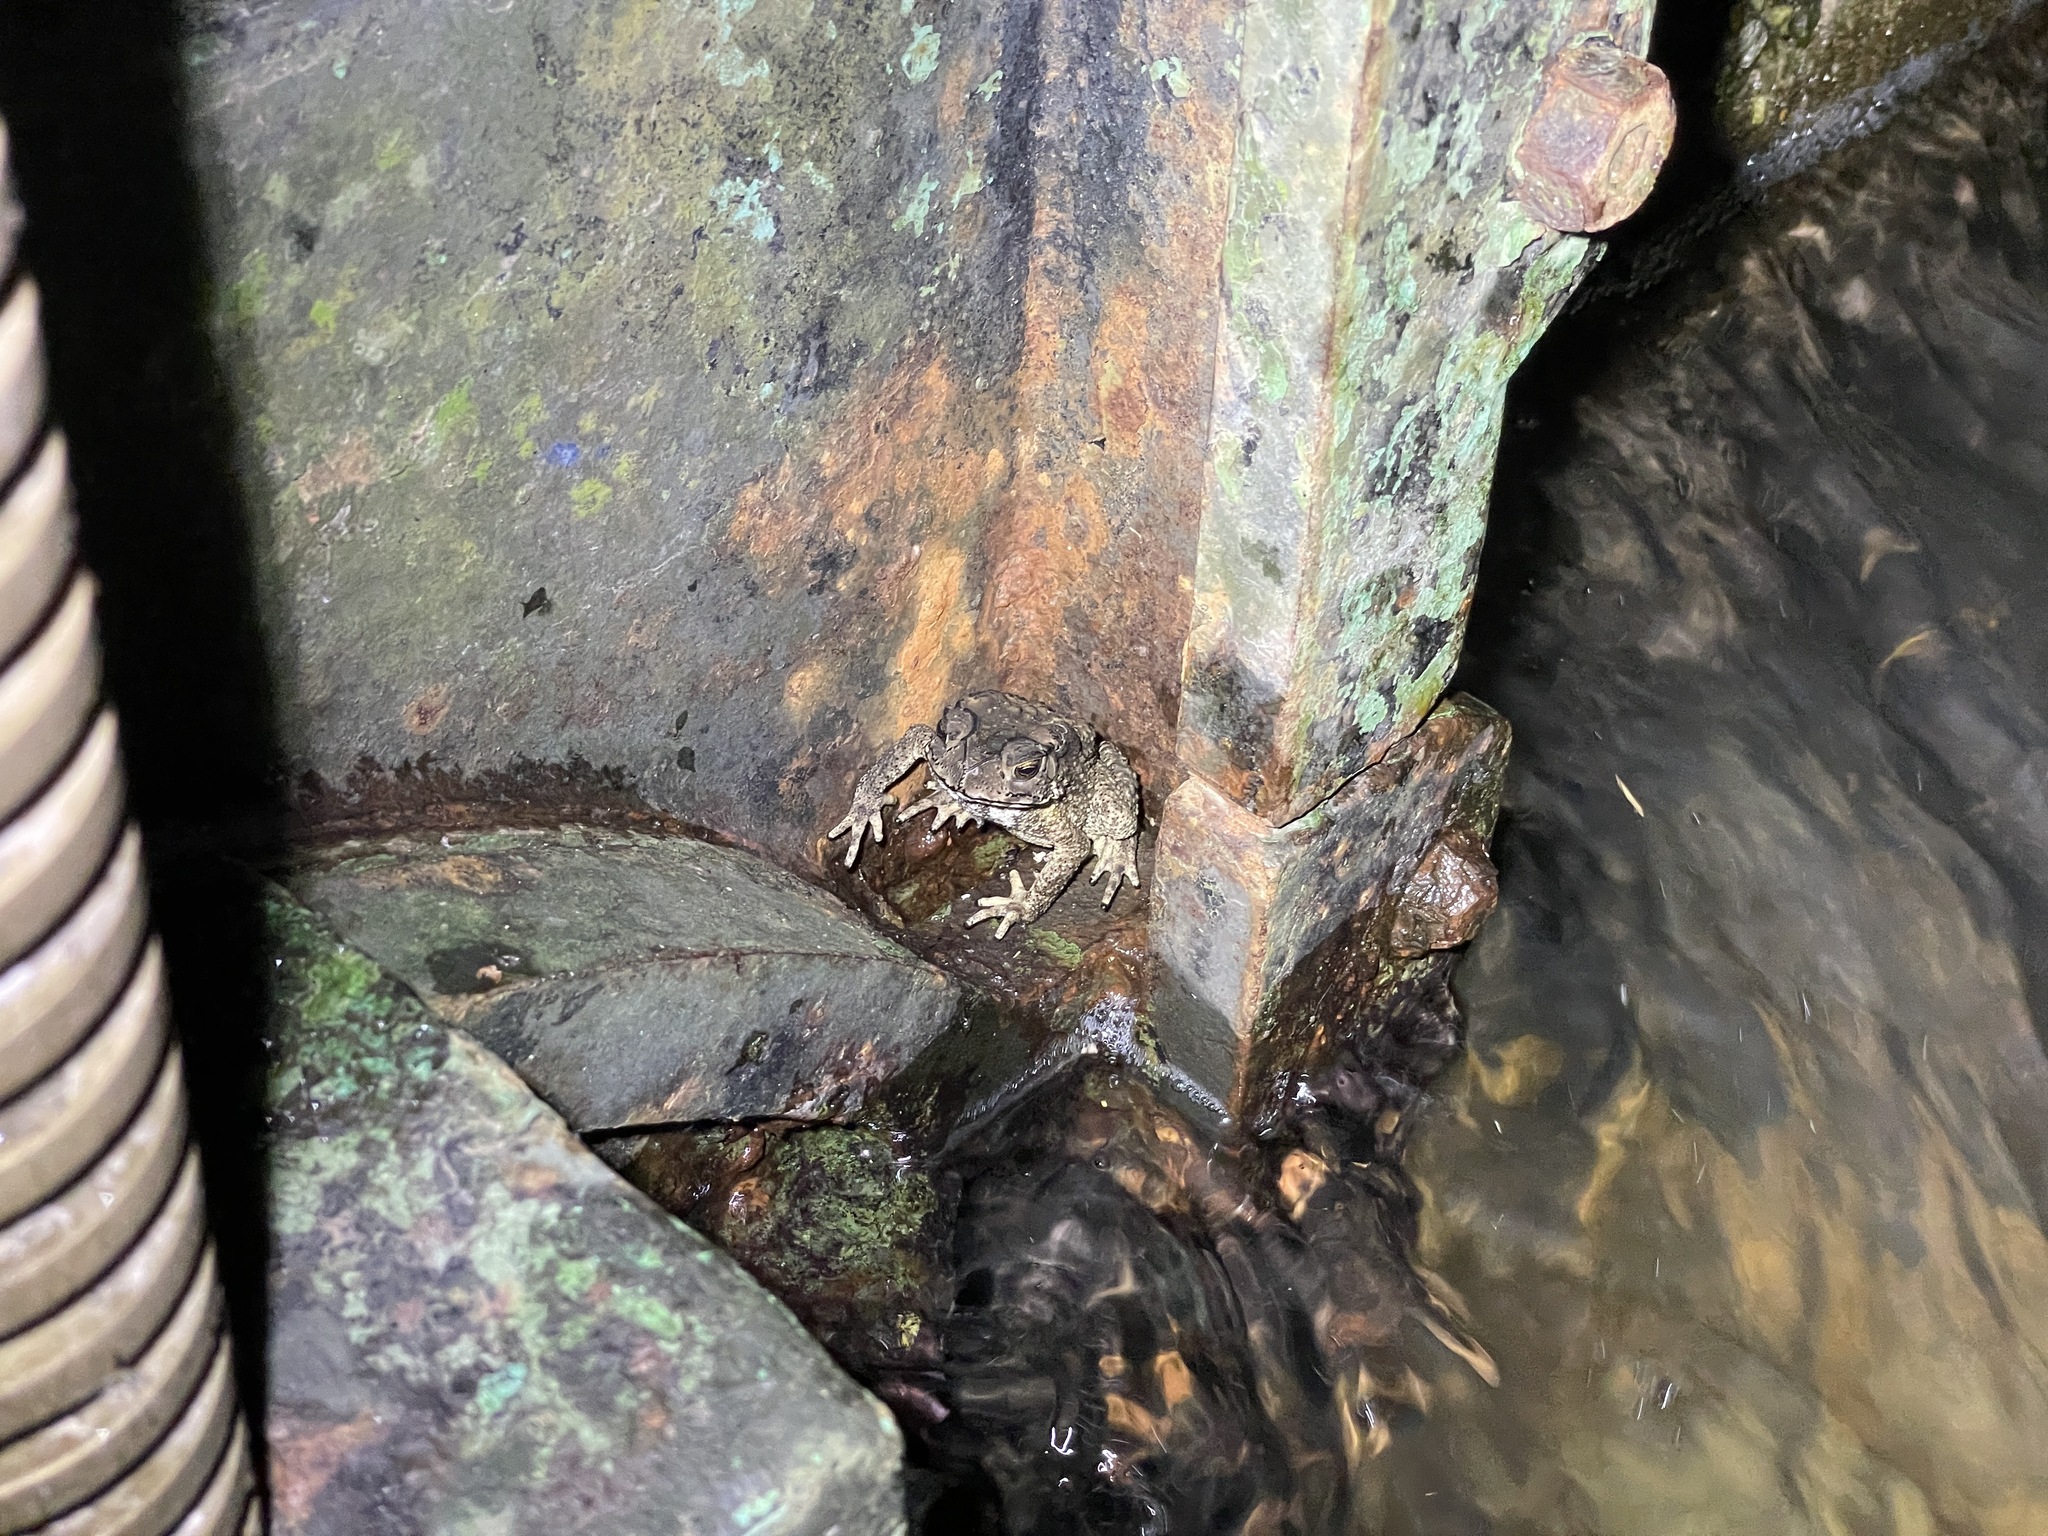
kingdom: Animalia
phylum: Chordata
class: Amphibia
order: Anura
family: Bufonidae
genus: Duttaphrynus
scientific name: Duttaphrynus melanostictus
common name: Common sunda toad
